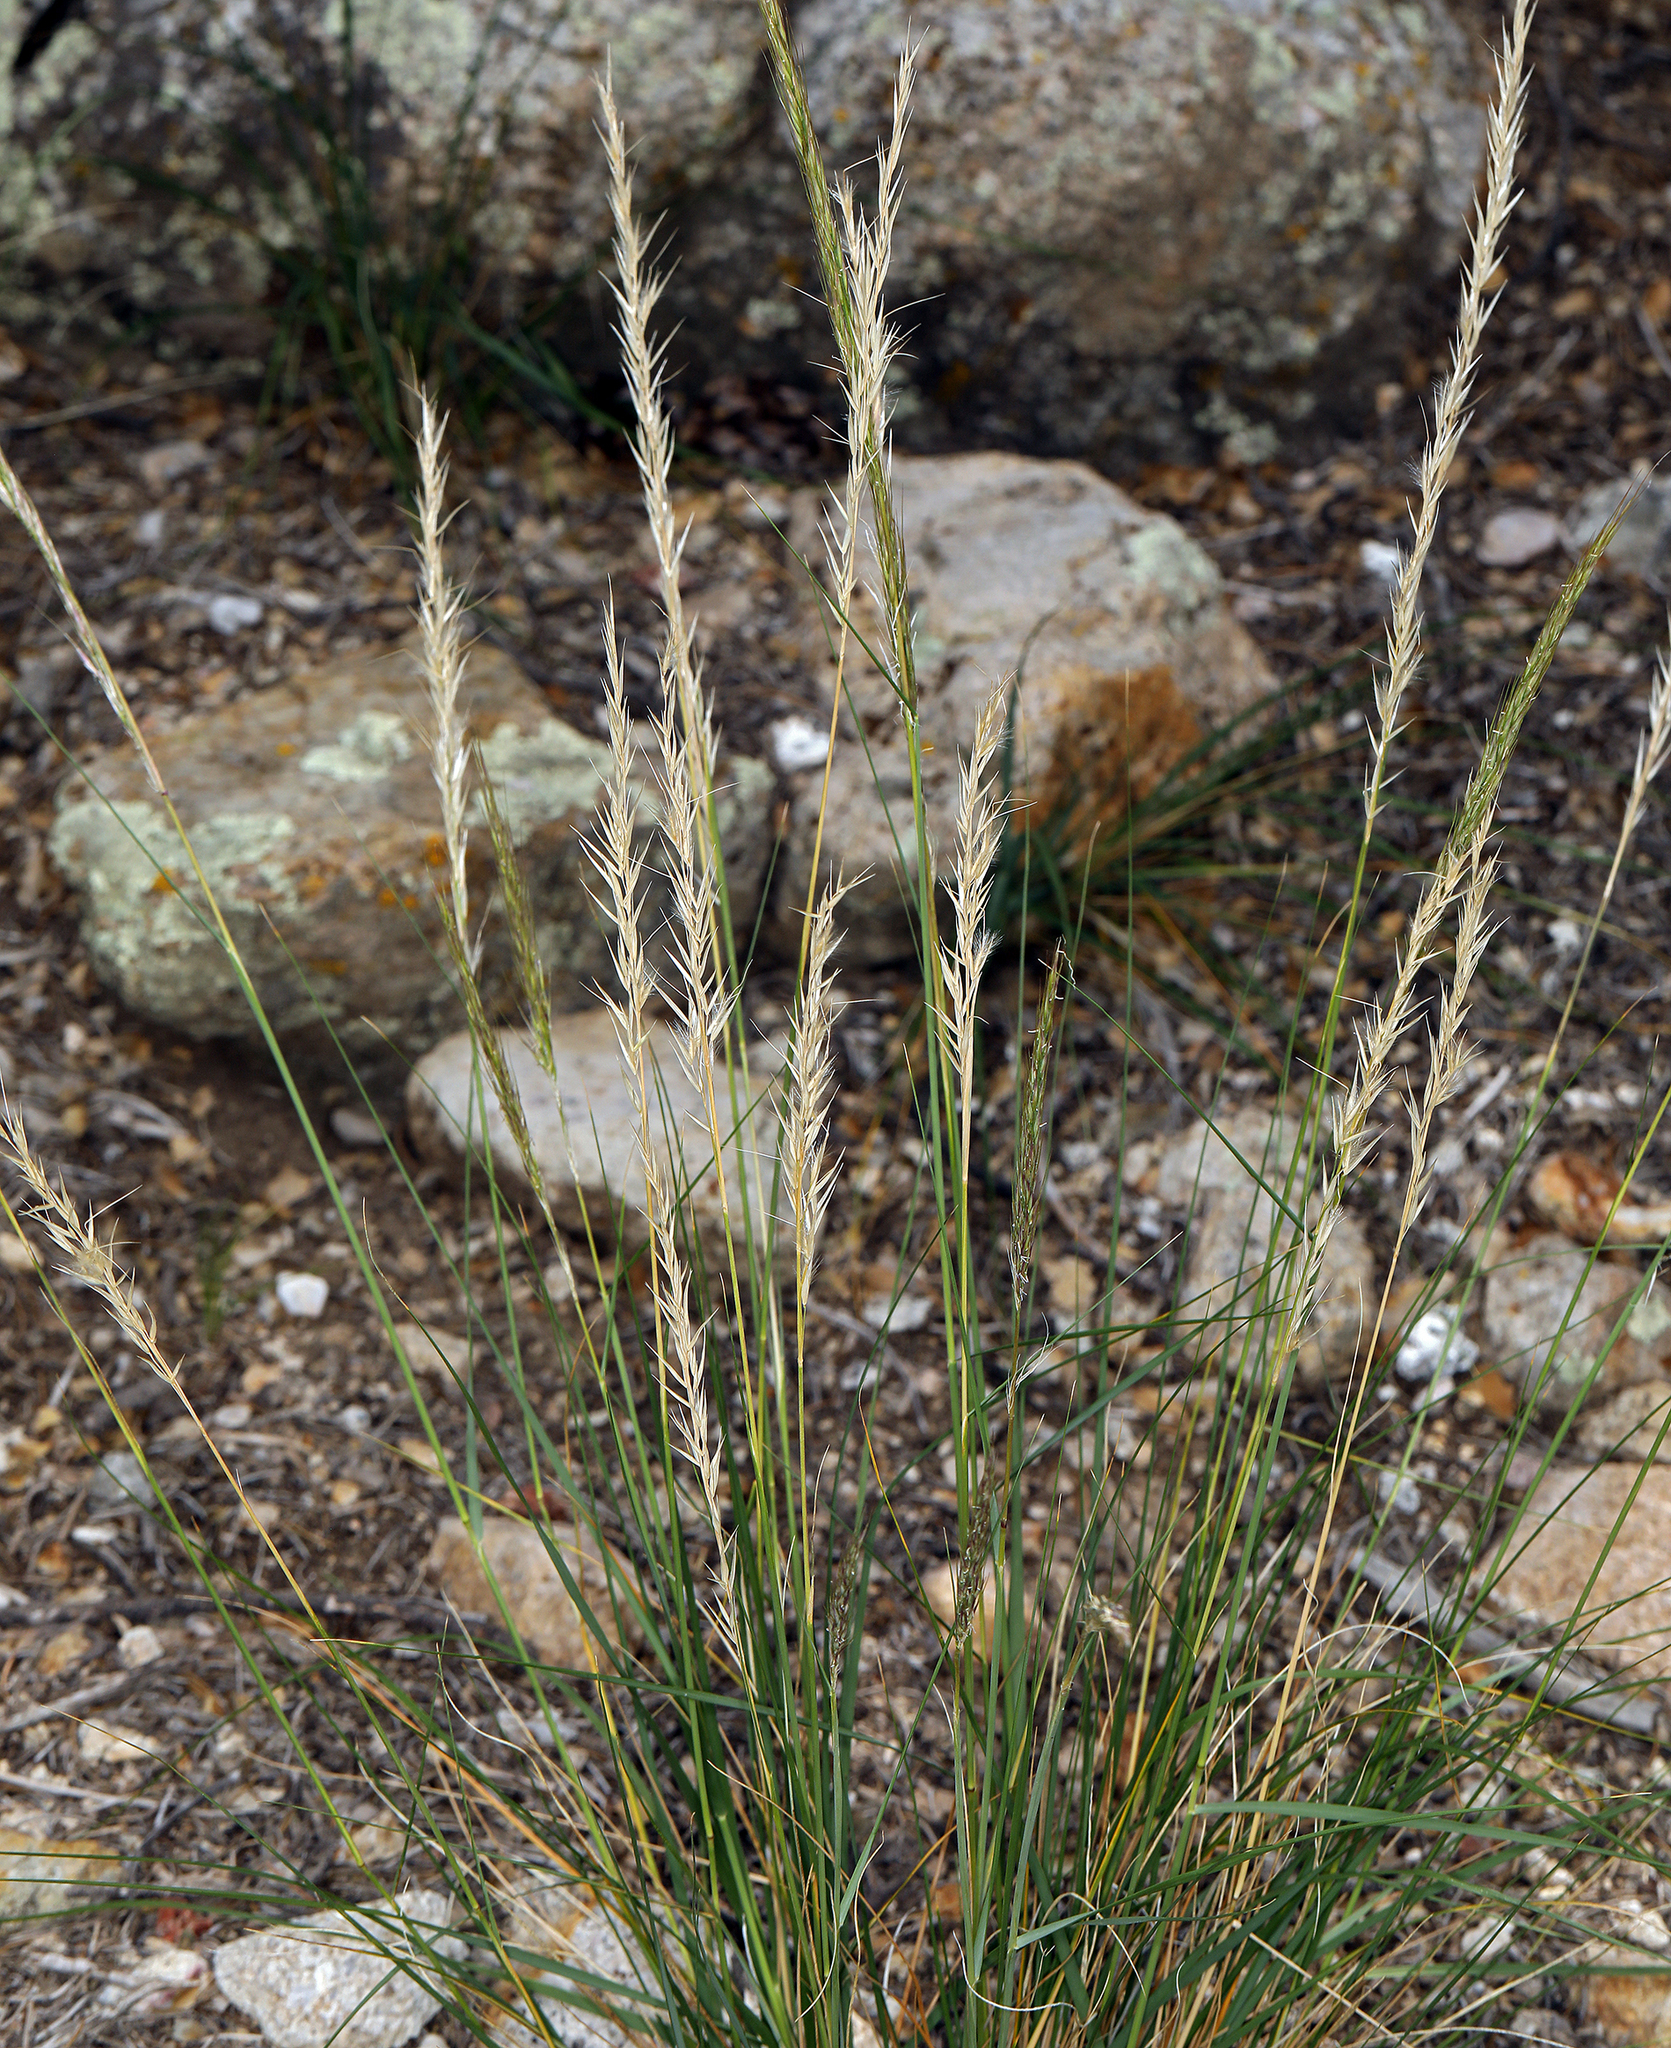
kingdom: Plantae
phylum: Tracheophyta
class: Liliopsida
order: Poales
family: Poaceae
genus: Pappostipa
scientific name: Pappostipa speciosa
